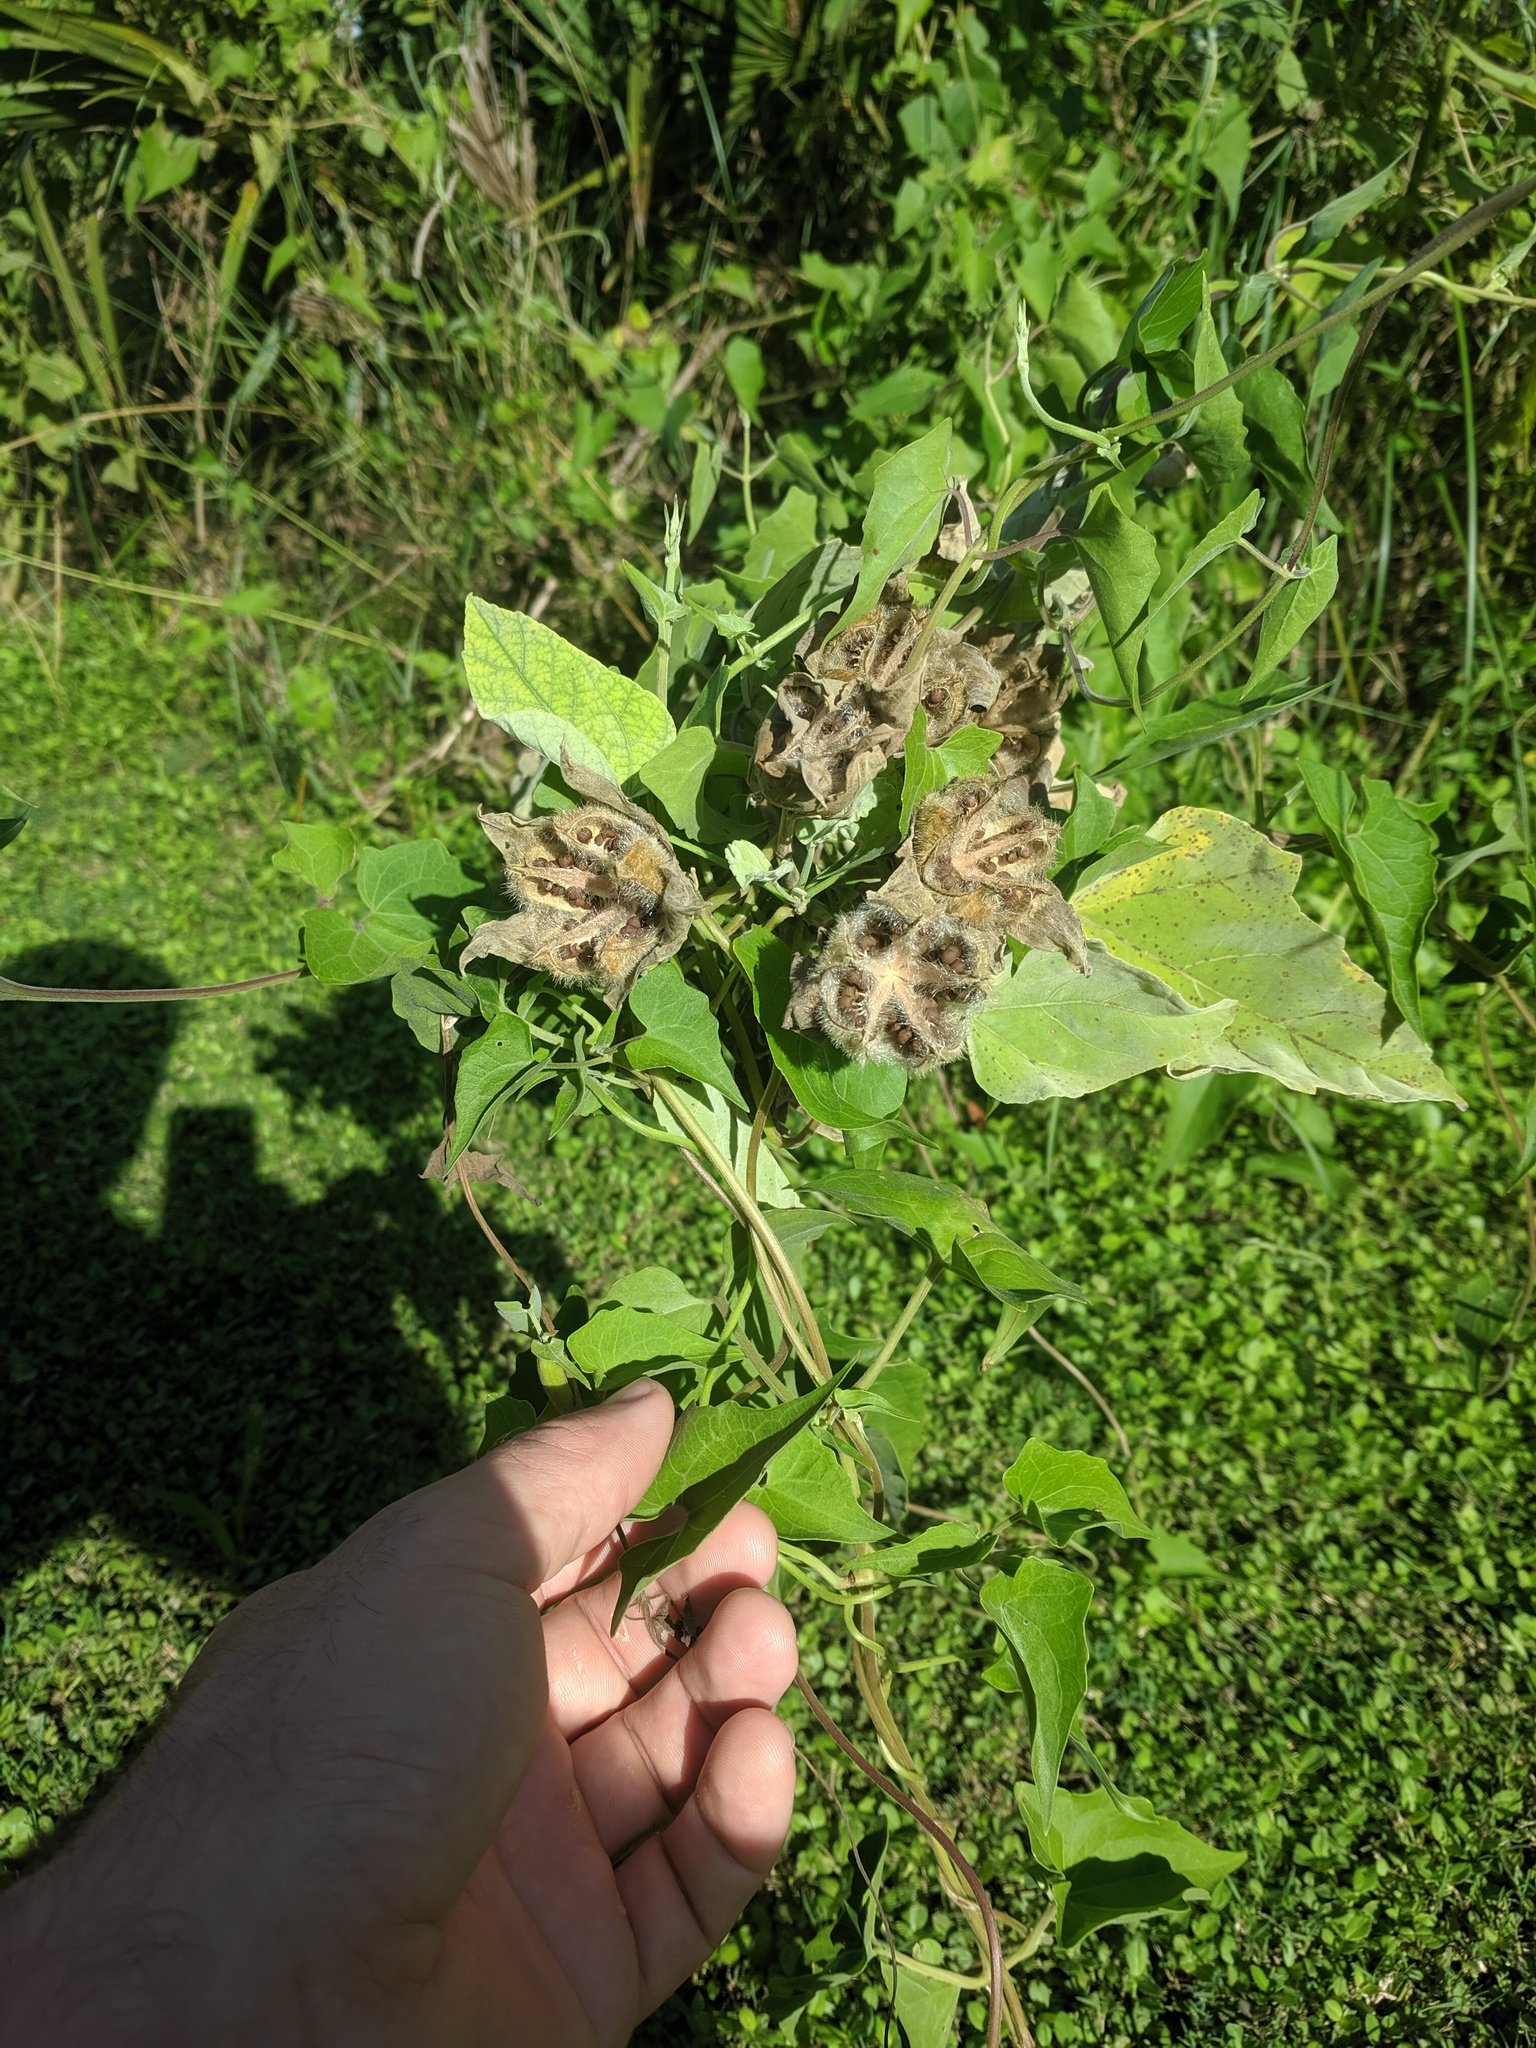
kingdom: Plantae
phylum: Tracheophyta
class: Magnoliopsida
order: Asterales
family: Asteraceae
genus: Mikania
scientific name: Mikania scandens
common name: Climbing hempvine
